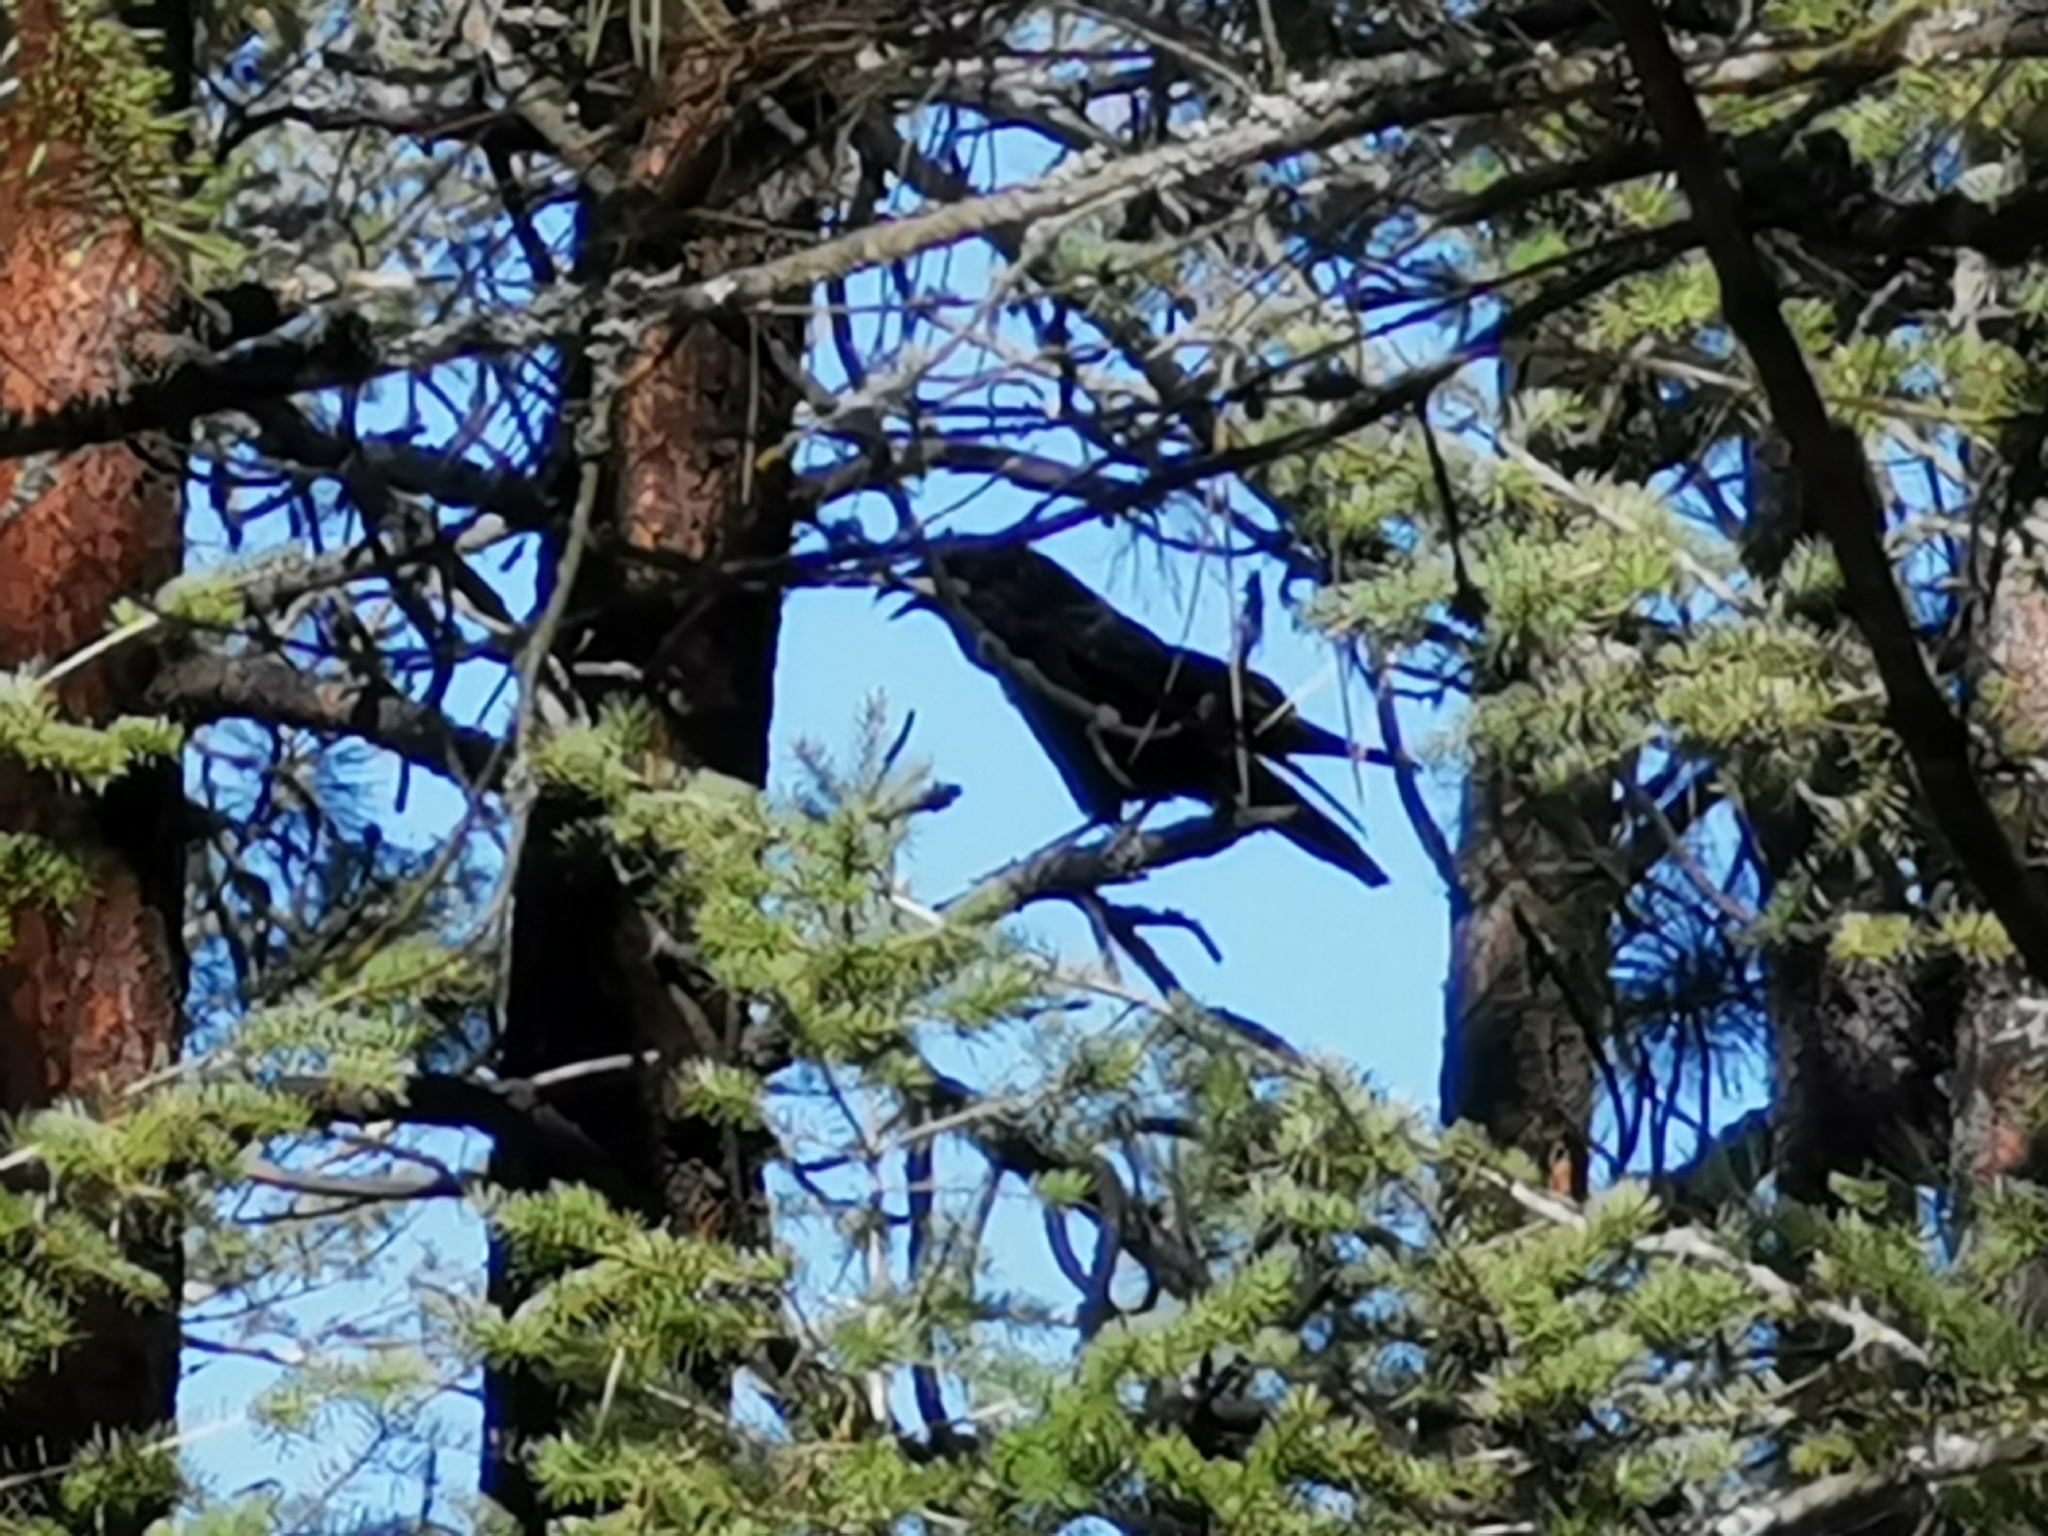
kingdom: Animalia
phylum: Chordata
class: Aves
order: Passeriformes
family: Corvidae
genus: Corvus
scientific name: Corvus corax
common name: Common raven
